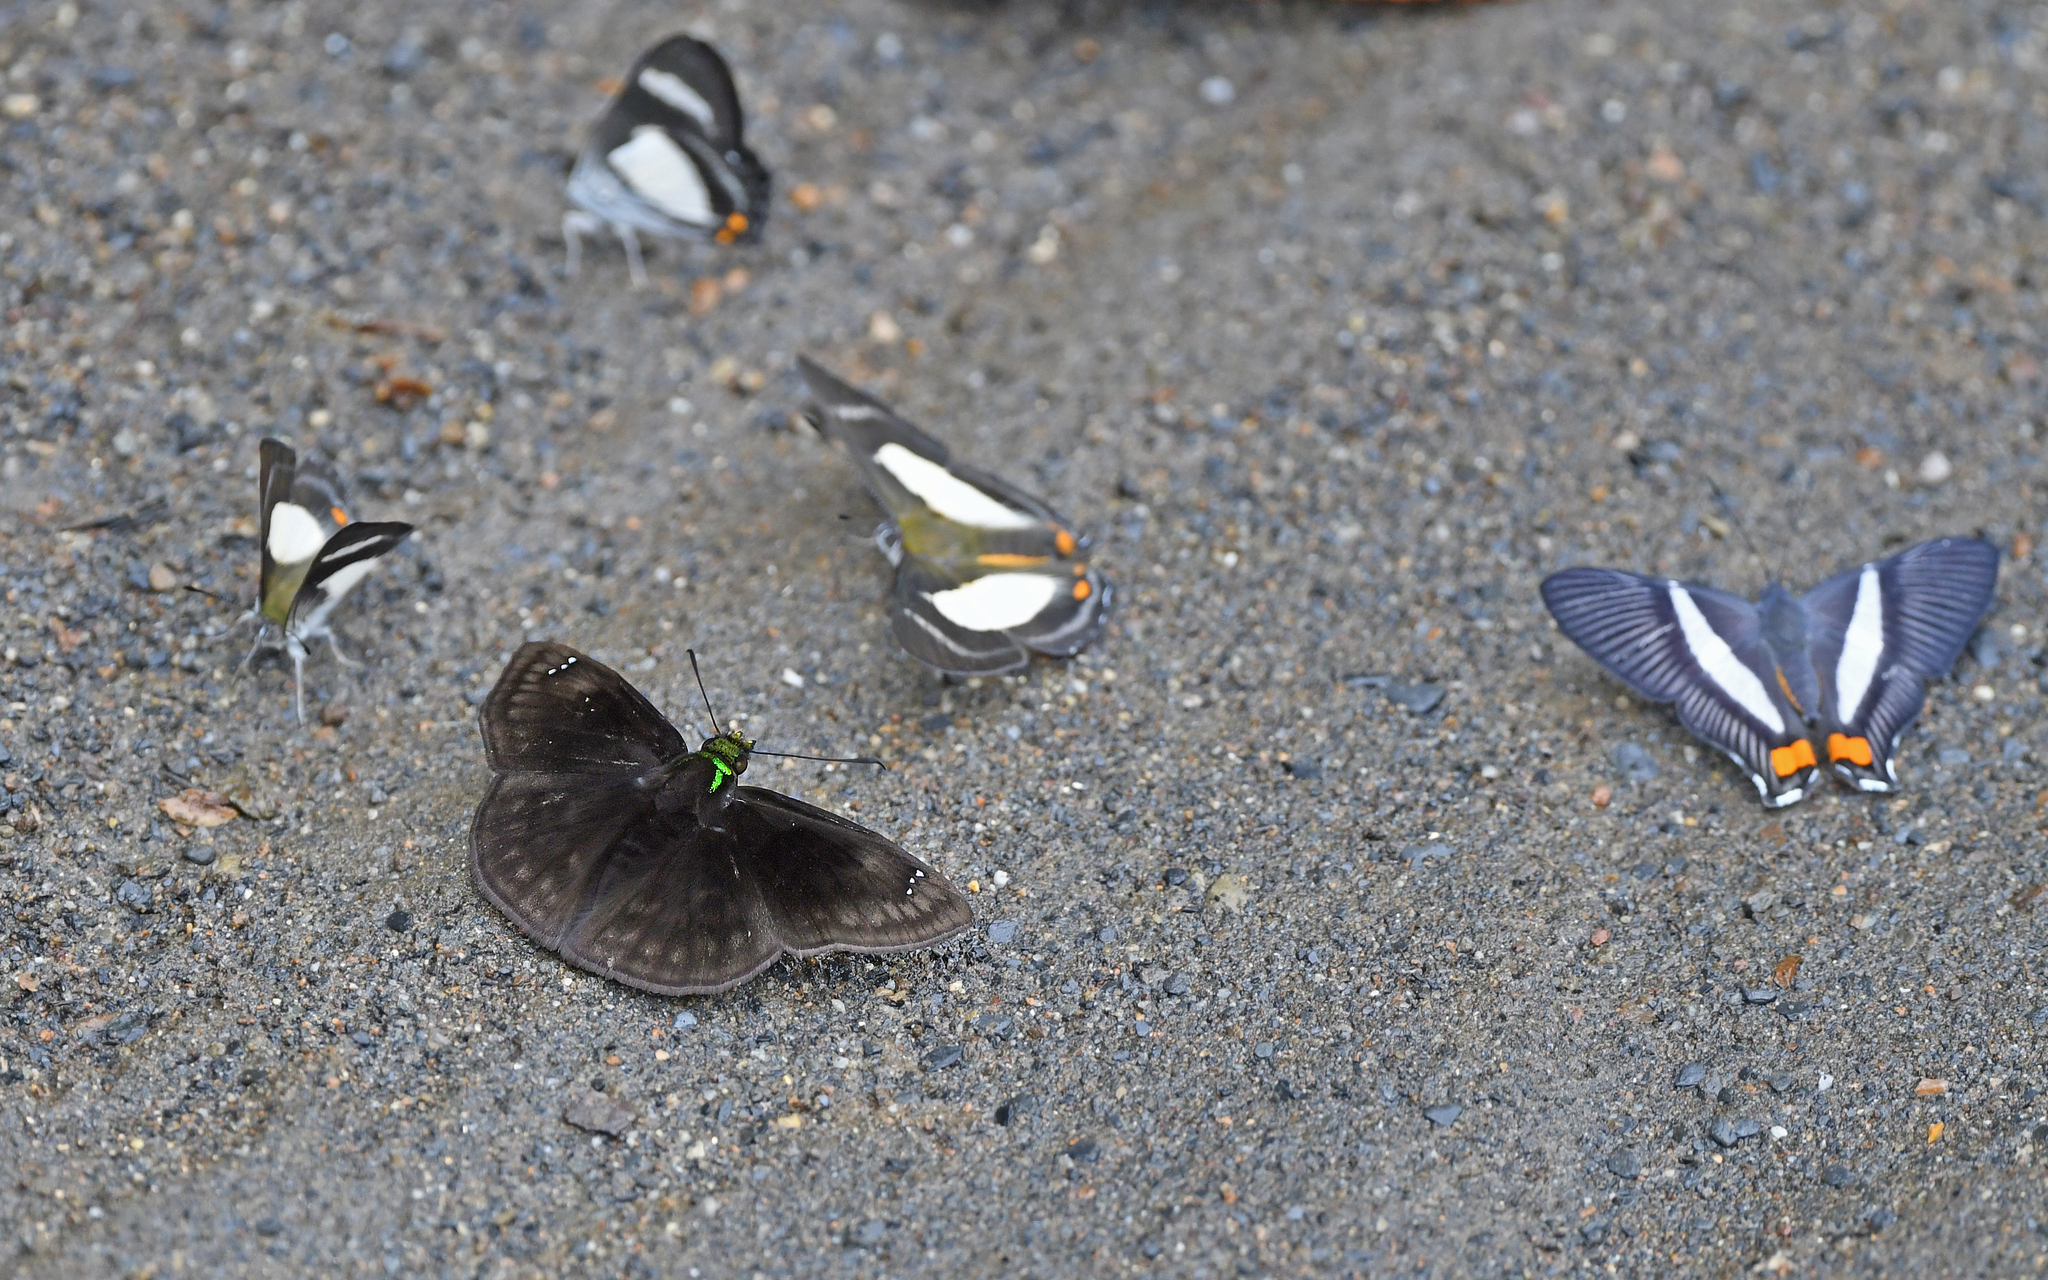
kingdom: Animalia
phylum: Arthropoda
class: Insecta
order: Lepidoptera
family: Hesperiidae
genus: Gorgopas
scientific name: Gorgopas chlorocephala
